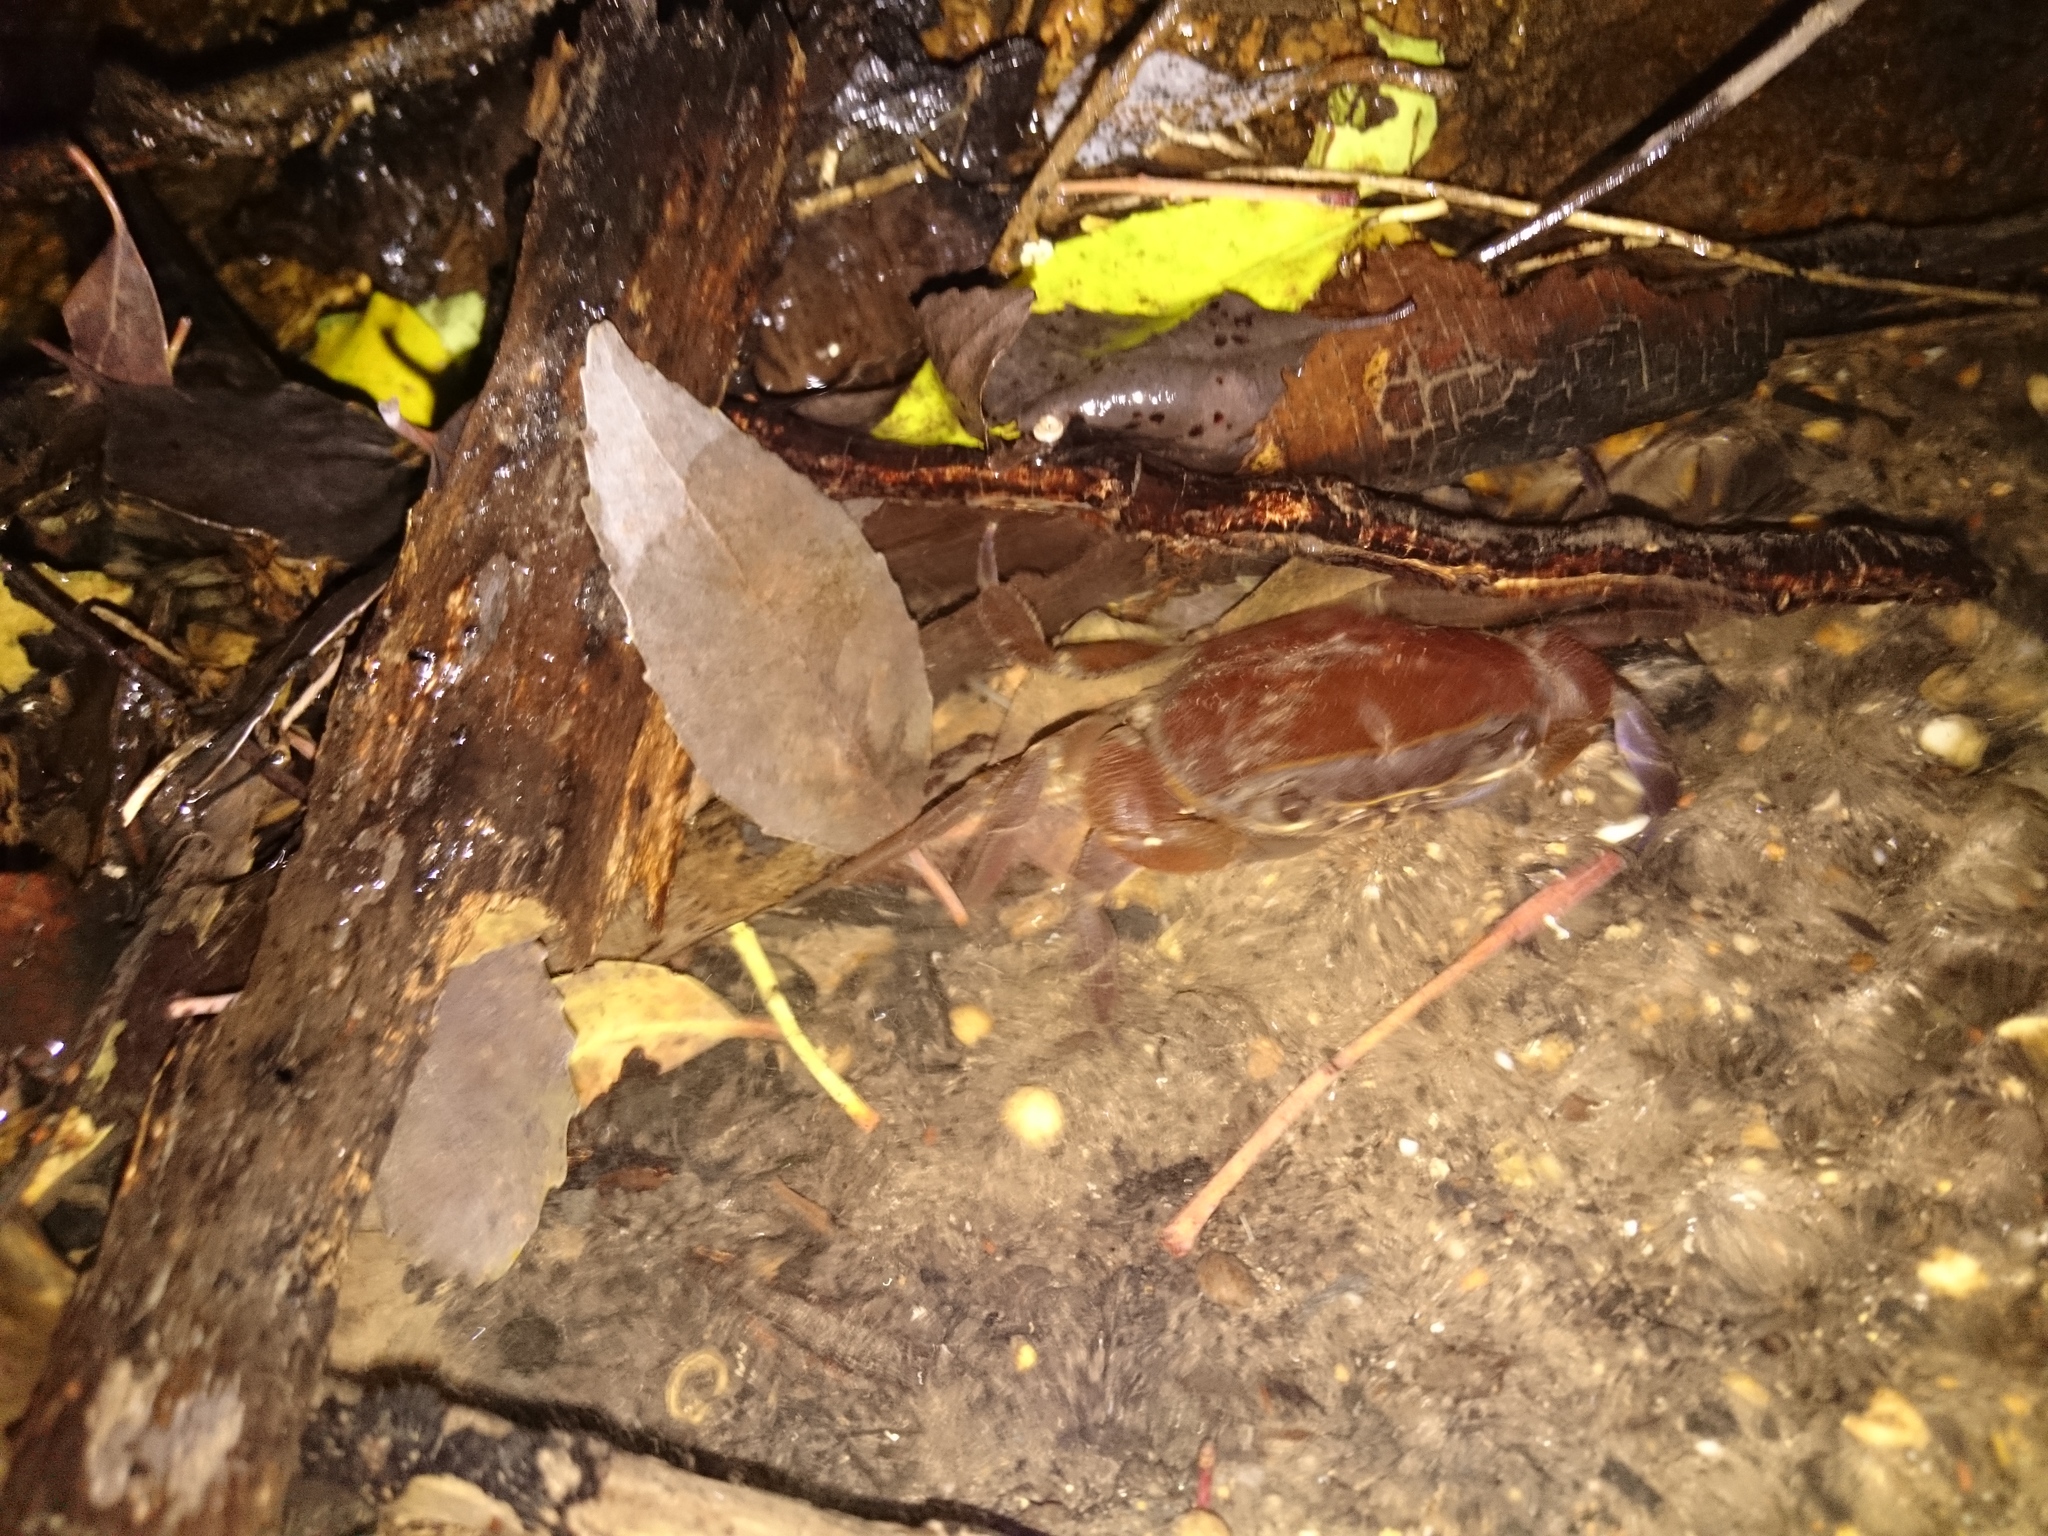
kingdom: Animalia
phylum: Arthropoda
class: Malacostraca
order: Decapoda
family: Potamonautidae
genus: Potamonautes
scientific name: Potamonautes perlatus
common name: Cape river crab
